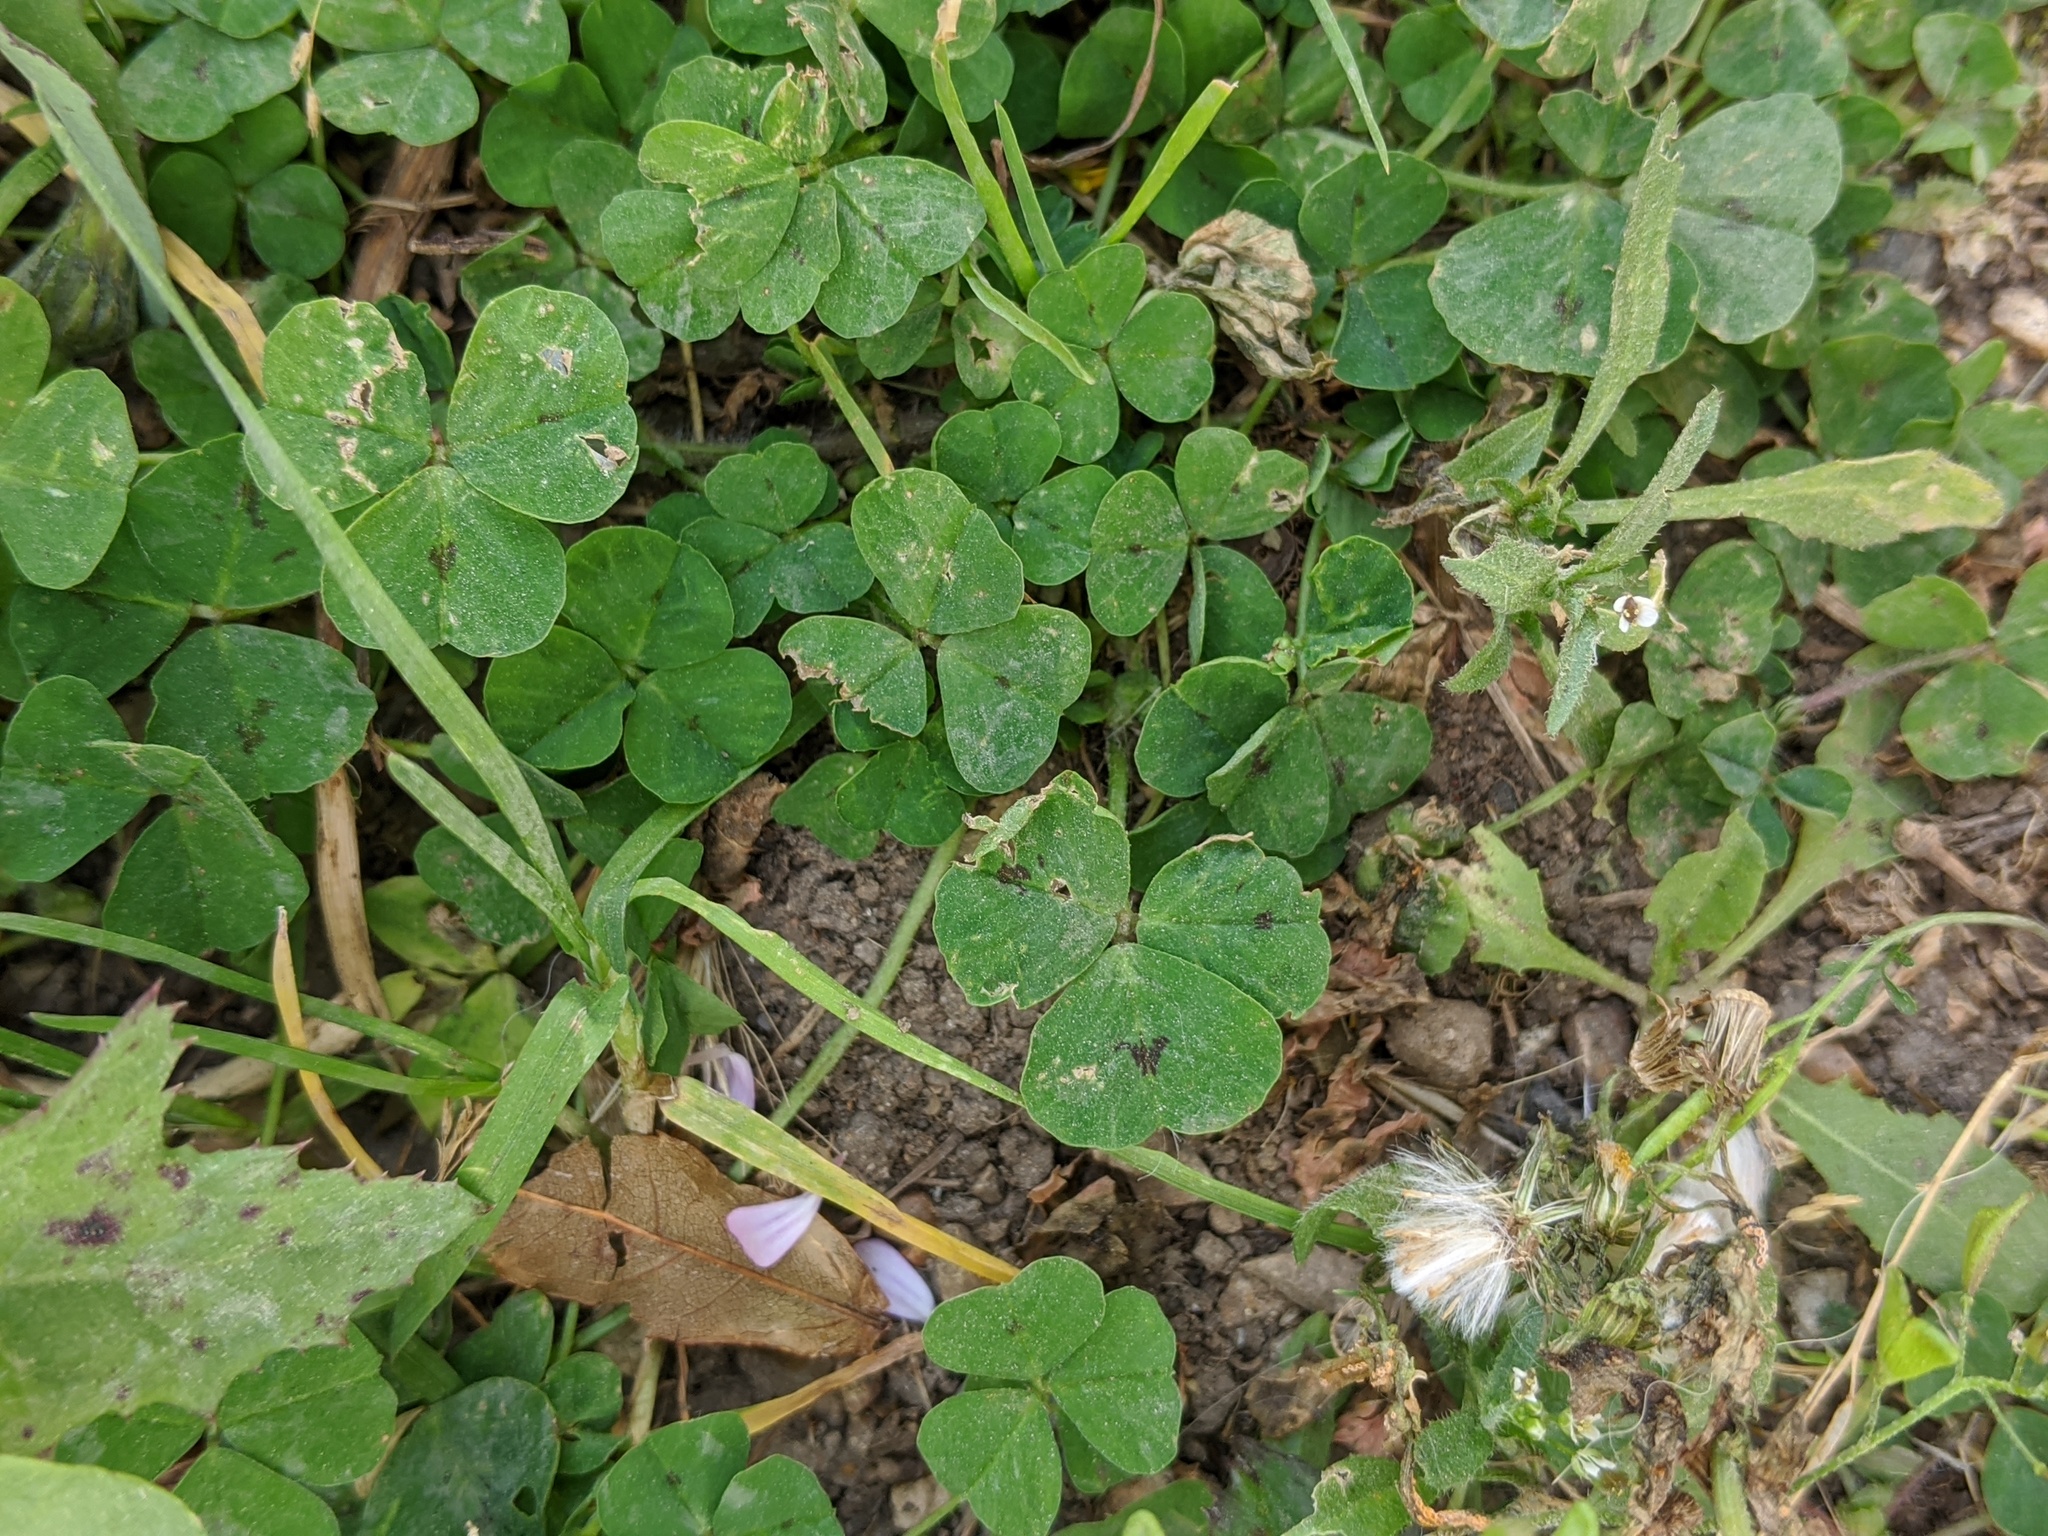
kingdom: Plantae
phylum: Tracheophyta
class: Magnoliopsida
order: Fabales
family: Fabaceae
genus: Medicago
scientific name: Medicago arabica
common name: Spotted medick
